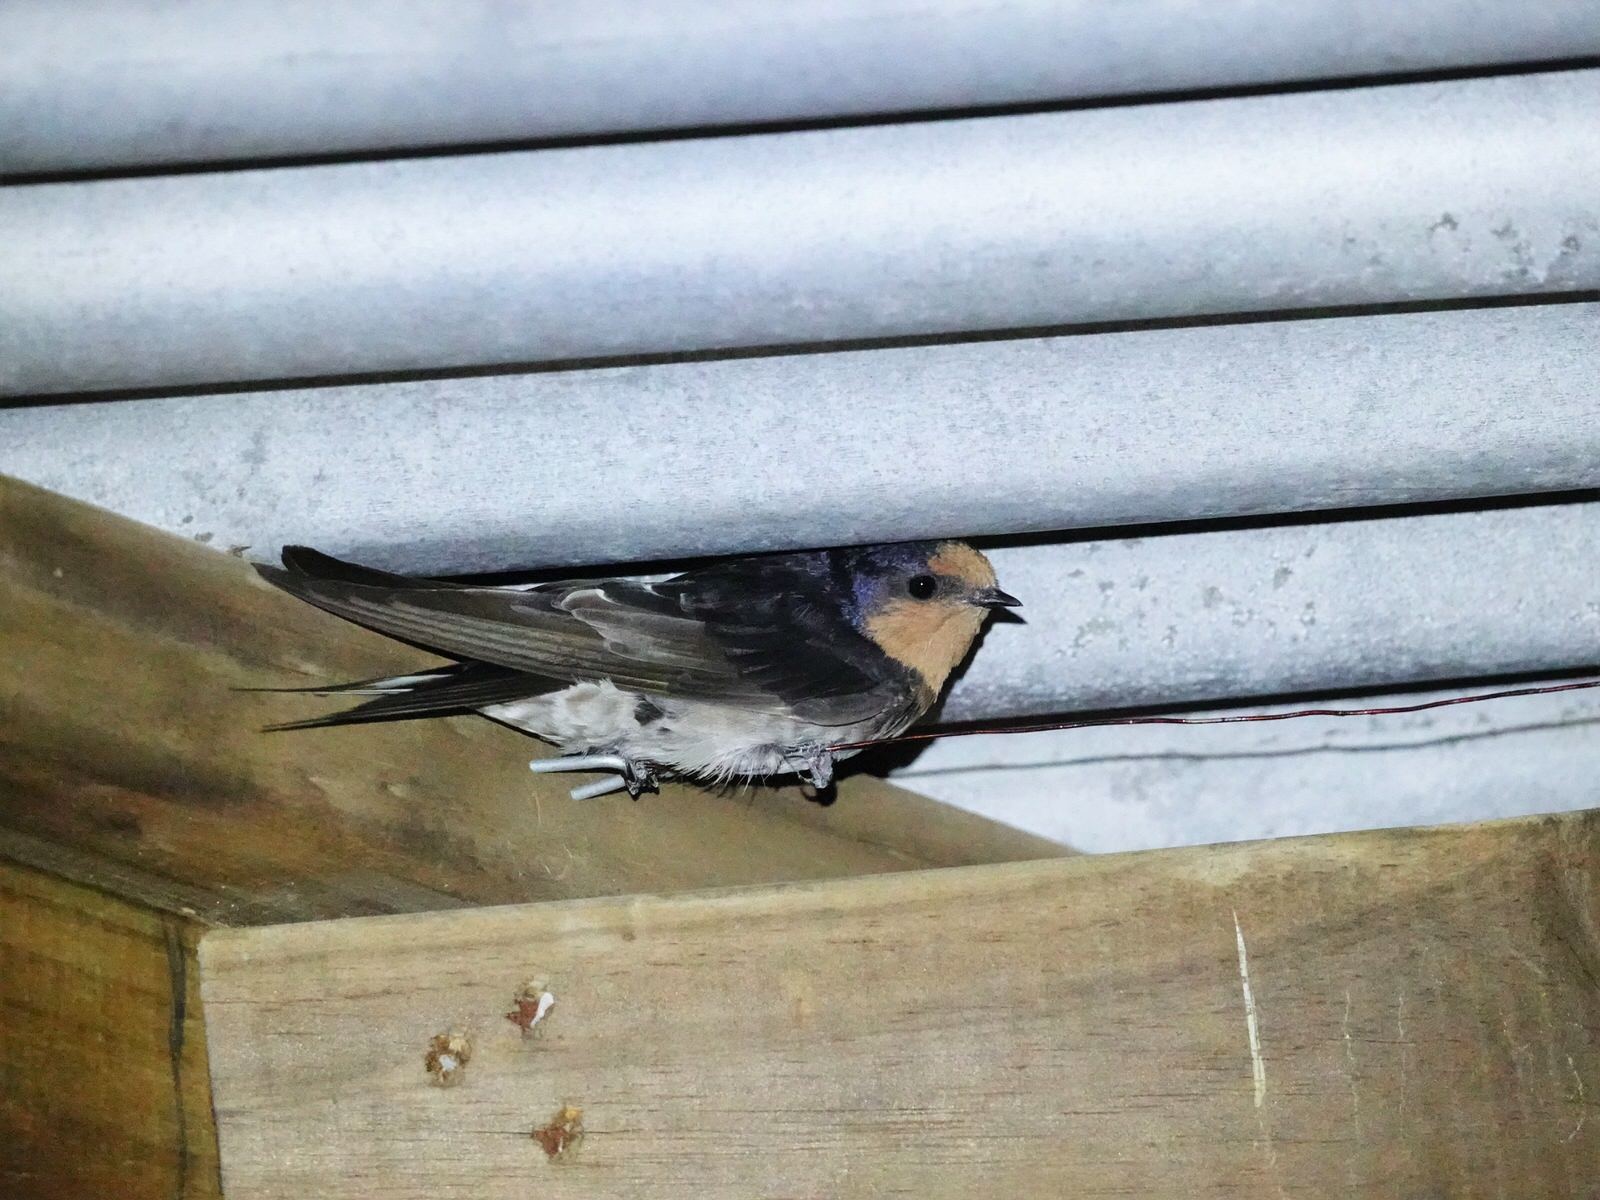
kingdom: Animalia
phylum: Chordata
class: Aves
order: Passeriformes
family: Hirundinidae
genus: Hirundo
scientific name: Hirundo neoxena
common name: Welcome swallow
